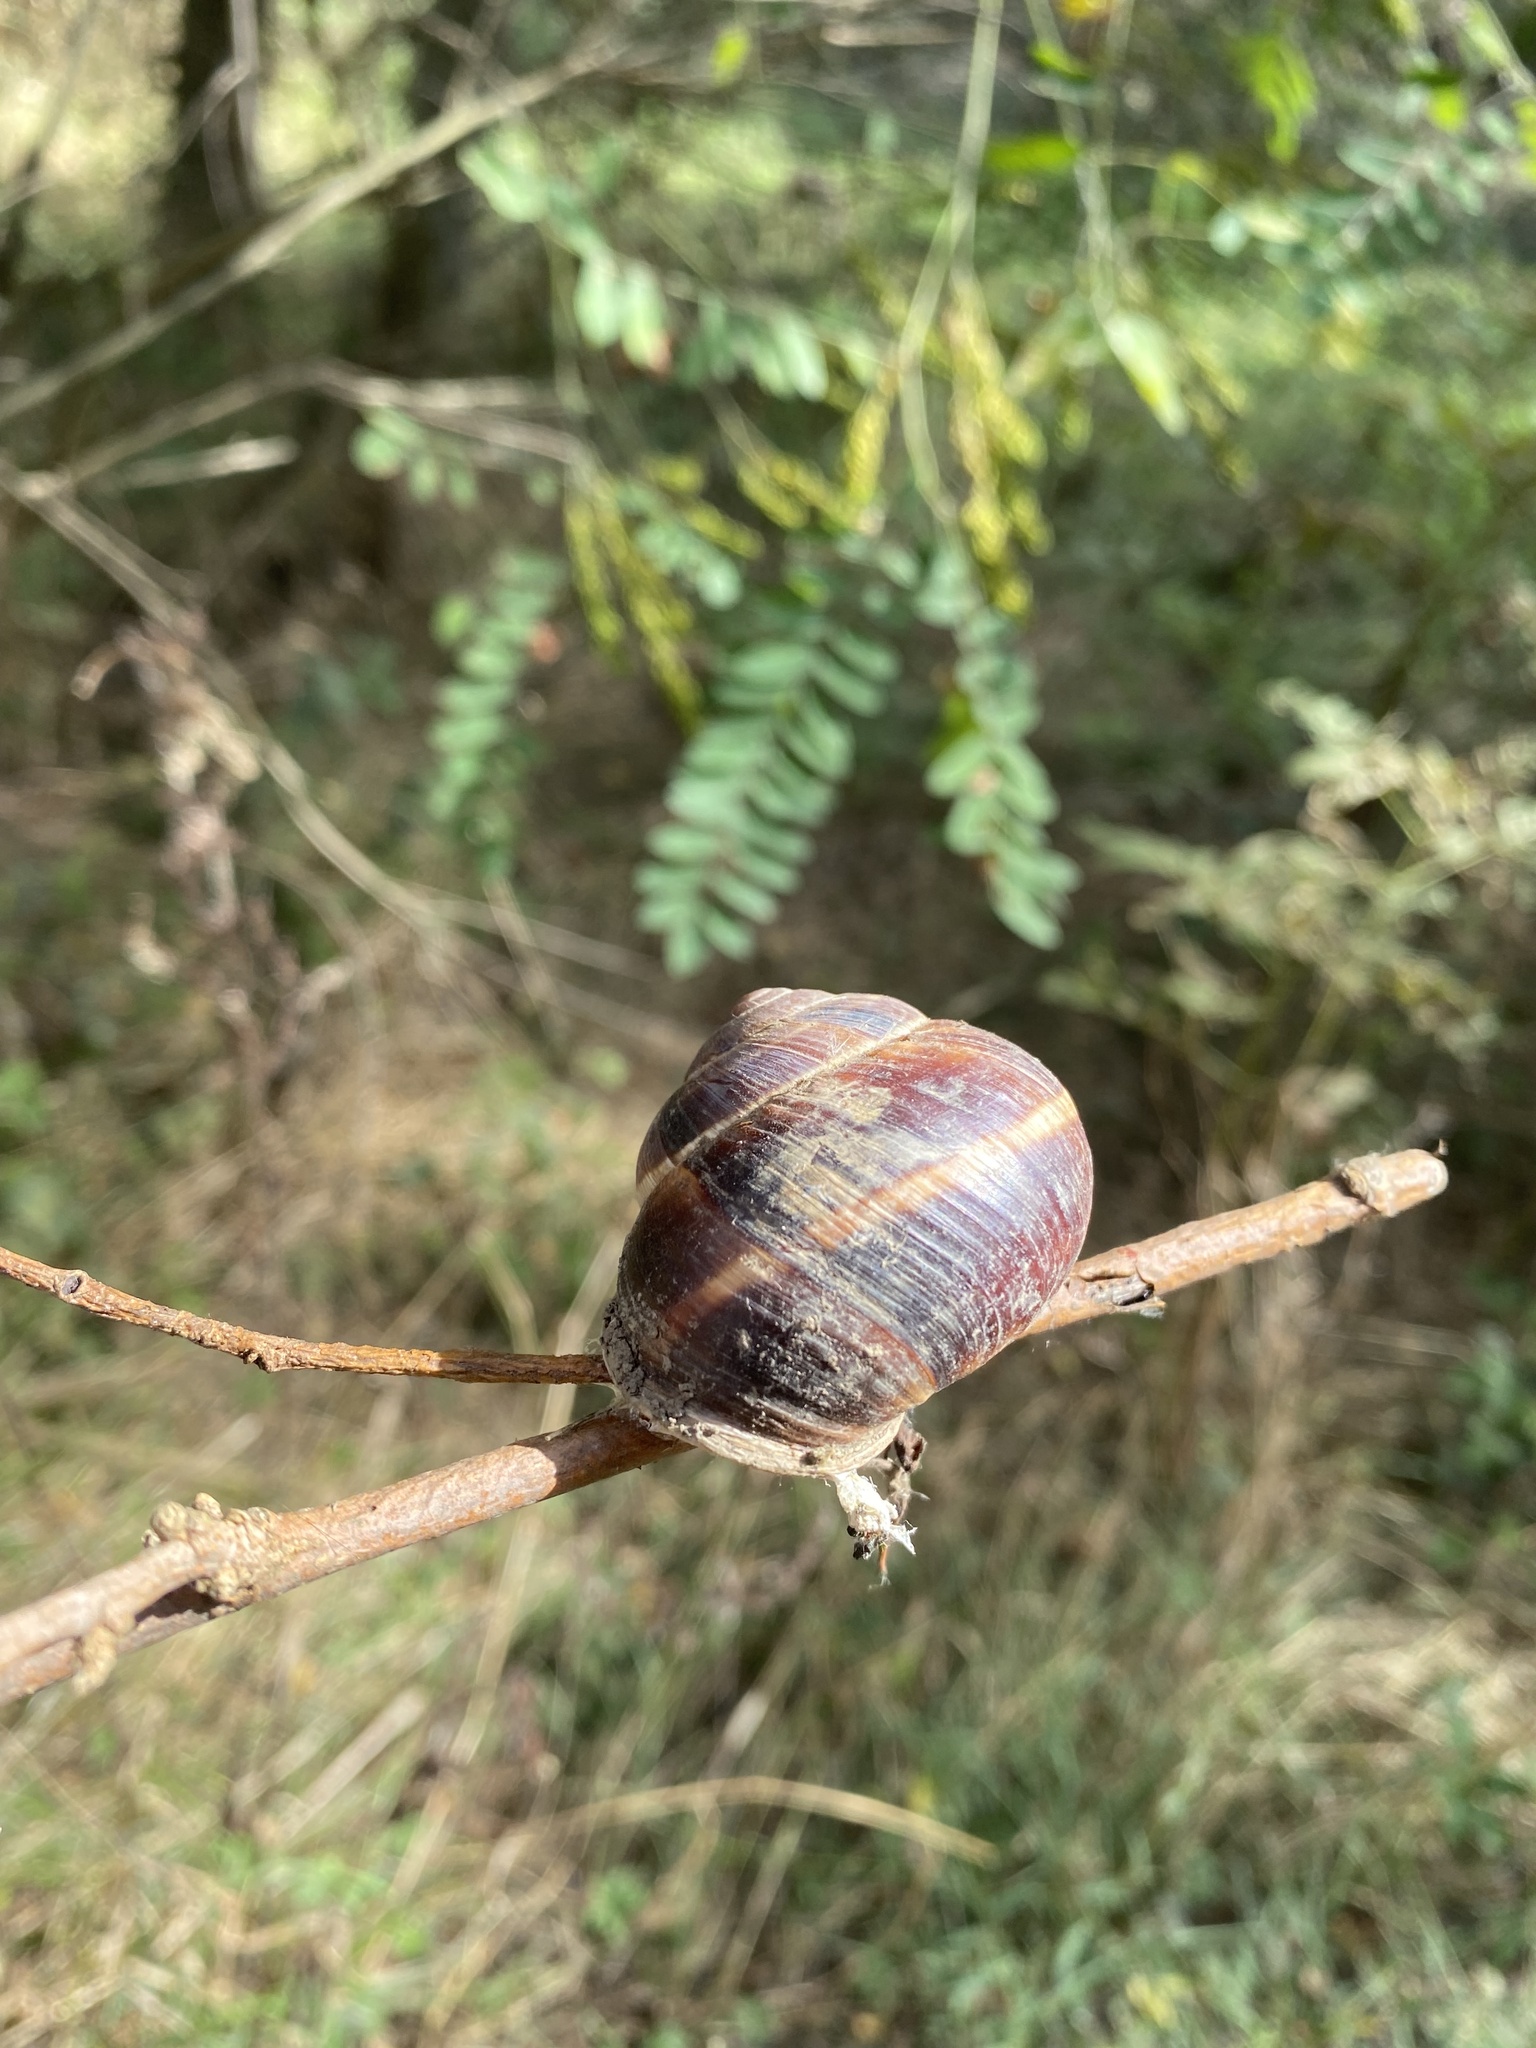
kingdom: Animalia
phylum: Mollusca
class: Gastropoda
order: Stylommatophora
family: Helicidae
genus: Helix
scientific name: Helix lucorum
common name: Turkish snail
